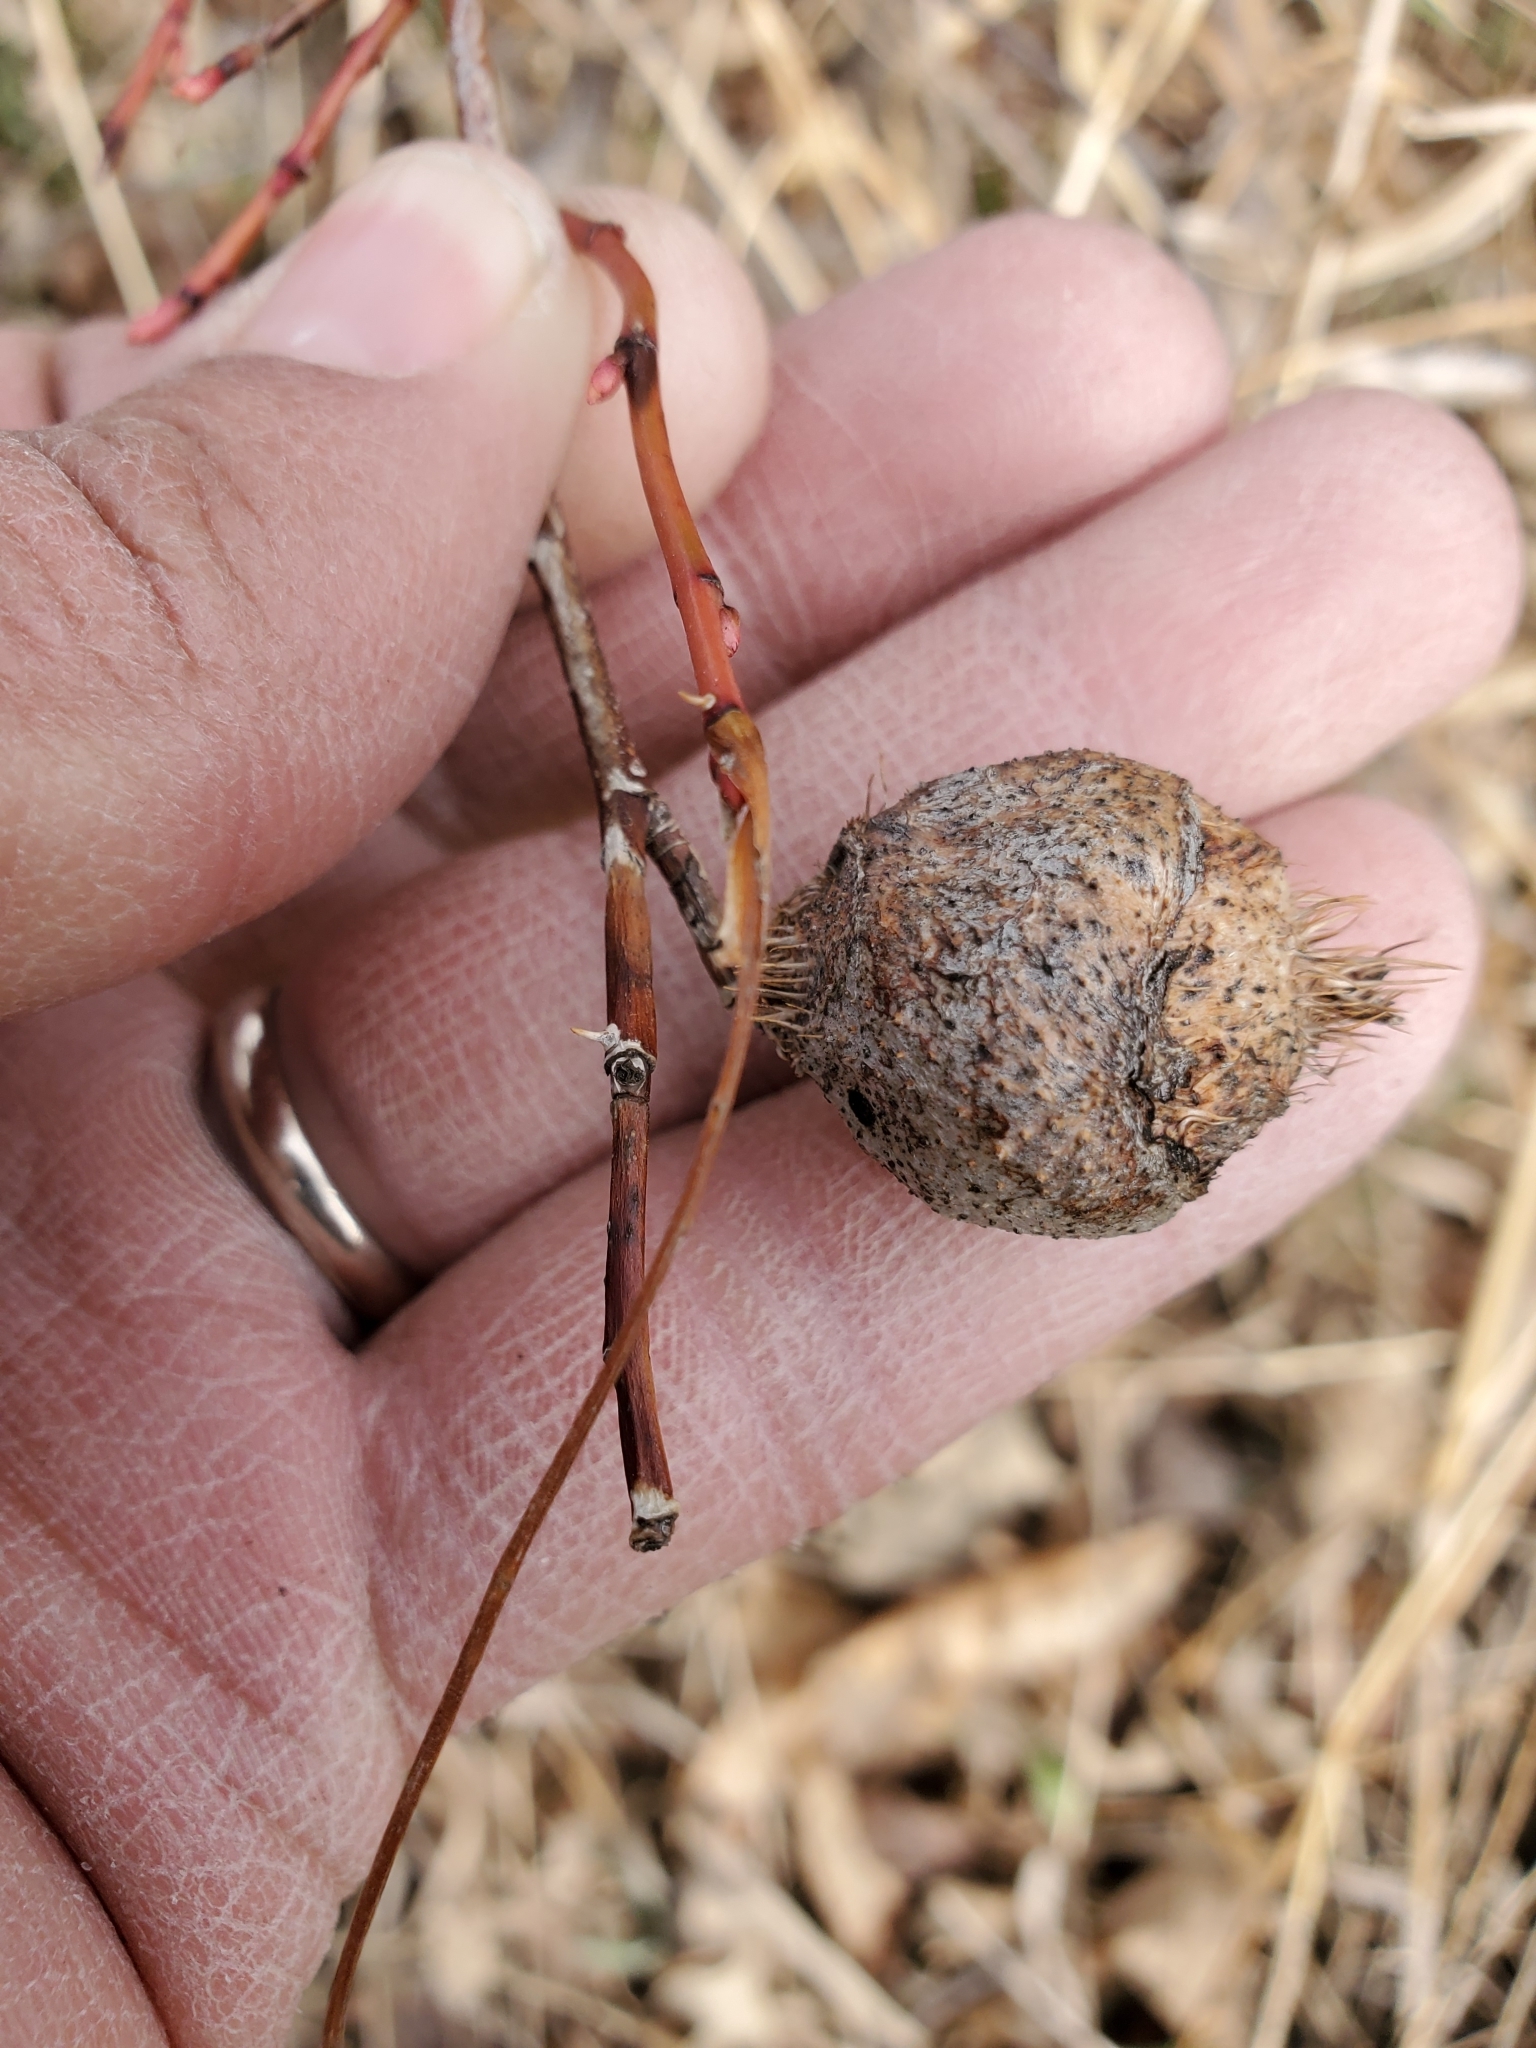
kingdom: Animalia
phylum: Arthropoda
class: Insecta
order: Hymenoptera
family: Cynipidae
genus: Diplolepis
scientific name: Diplolepis spinosa
